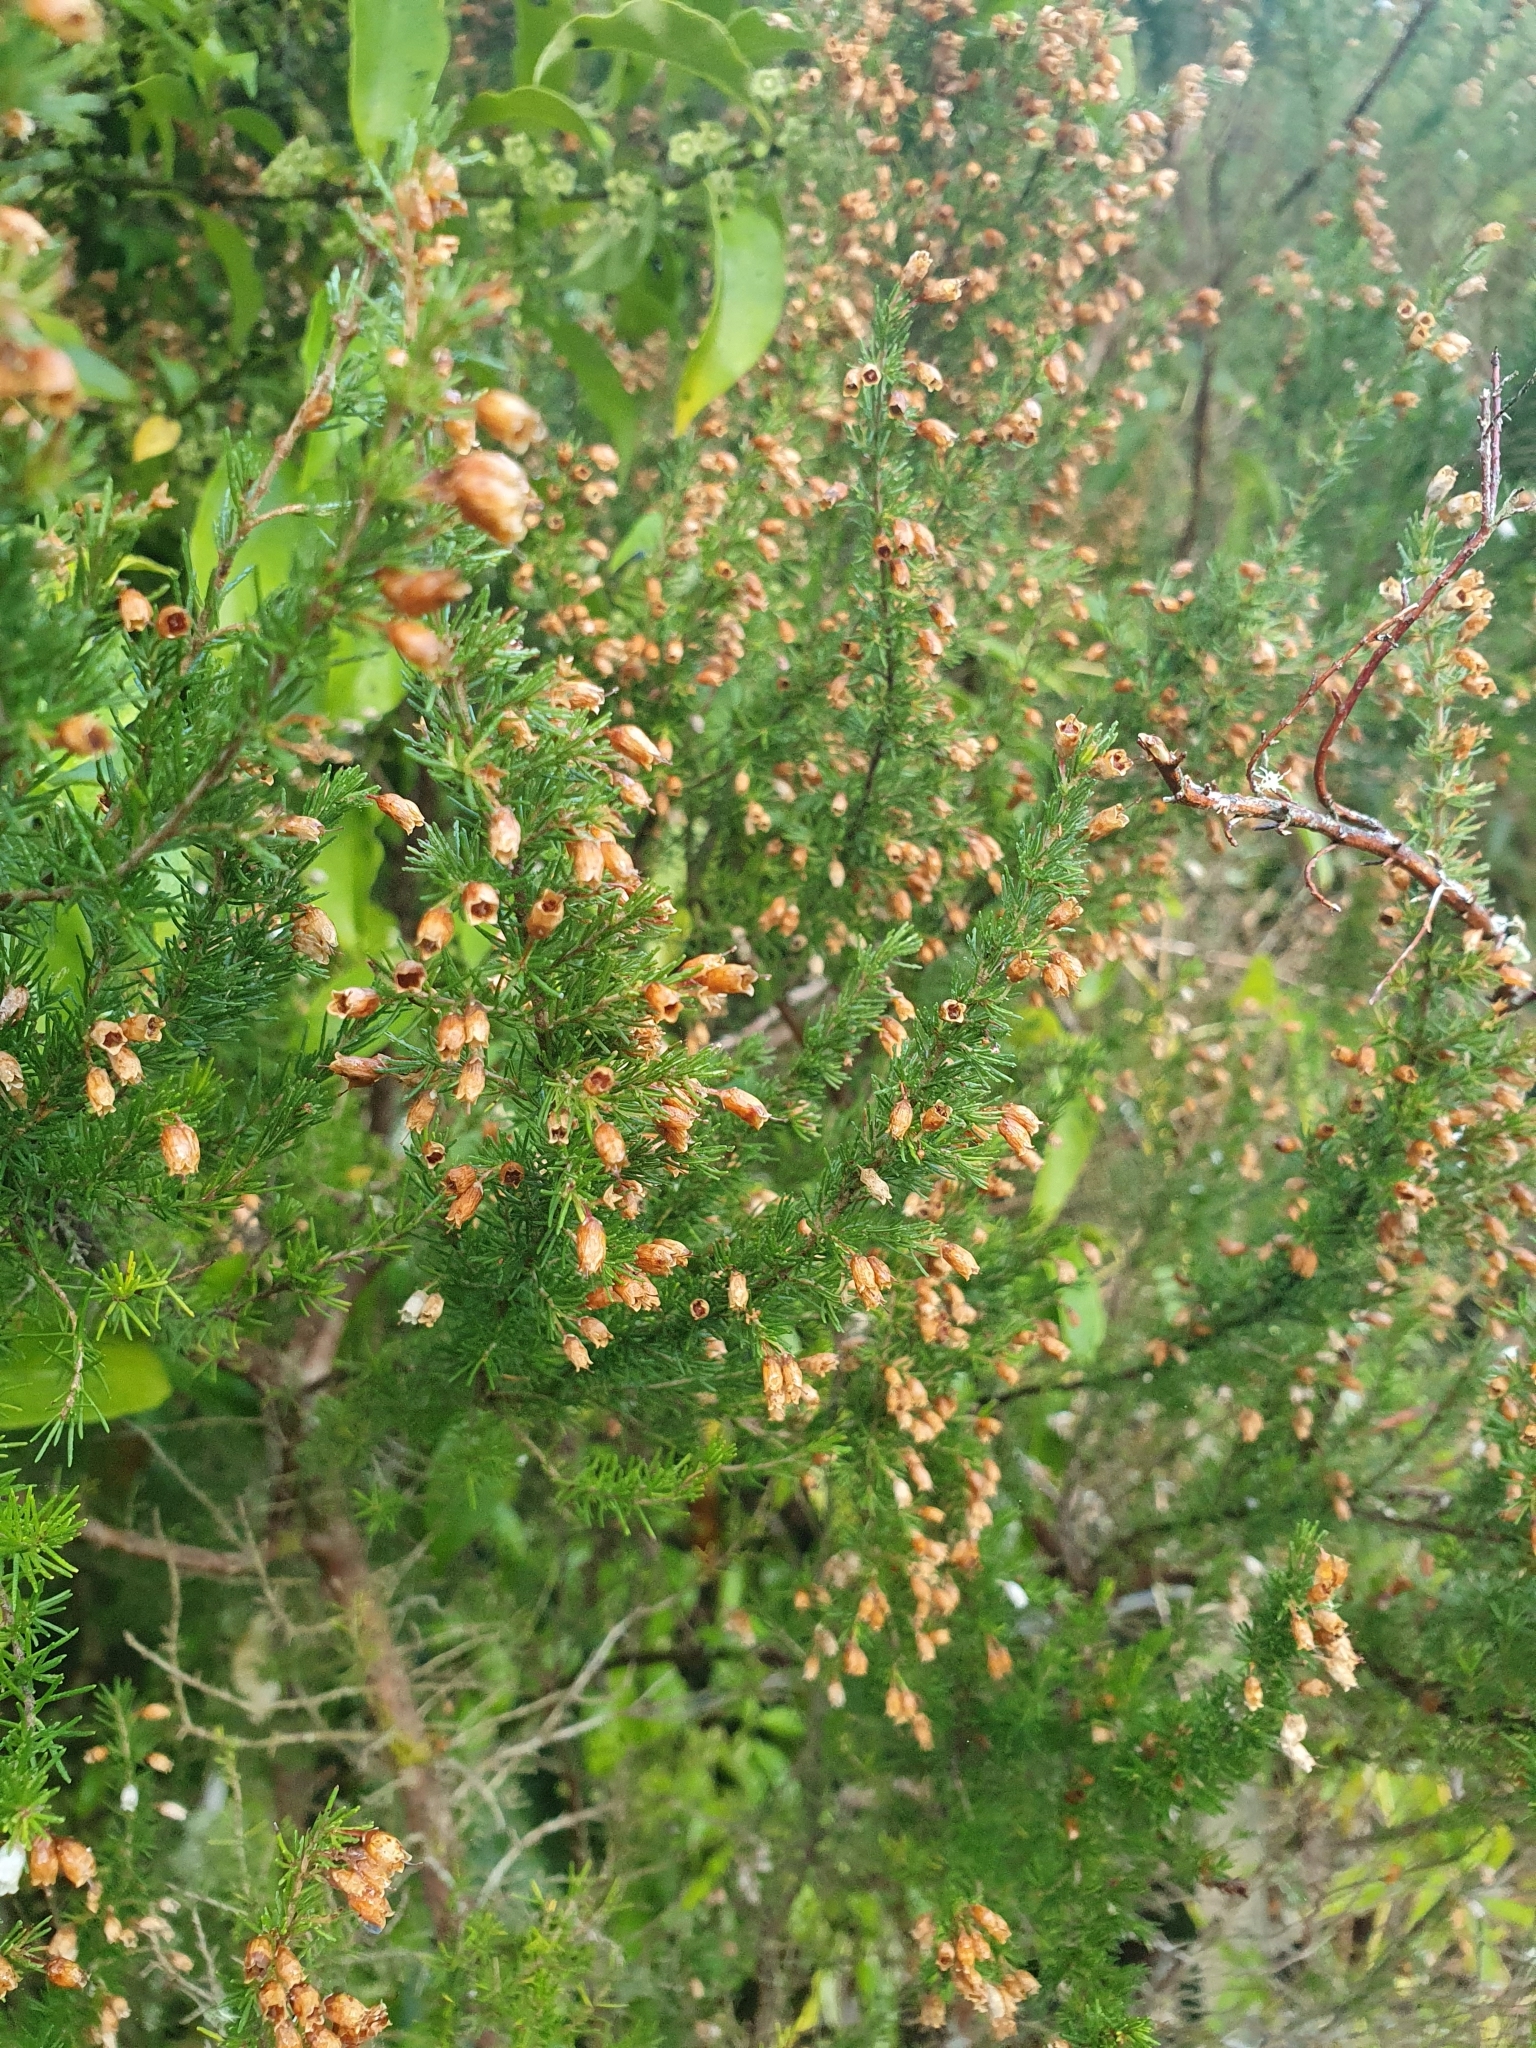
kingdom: Plantae
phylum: Tracheophyta
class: Magnoliopsida
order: Ericales
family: Ericaceae
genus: Erica
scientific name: Erica lusitanica
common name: Spanish heath
